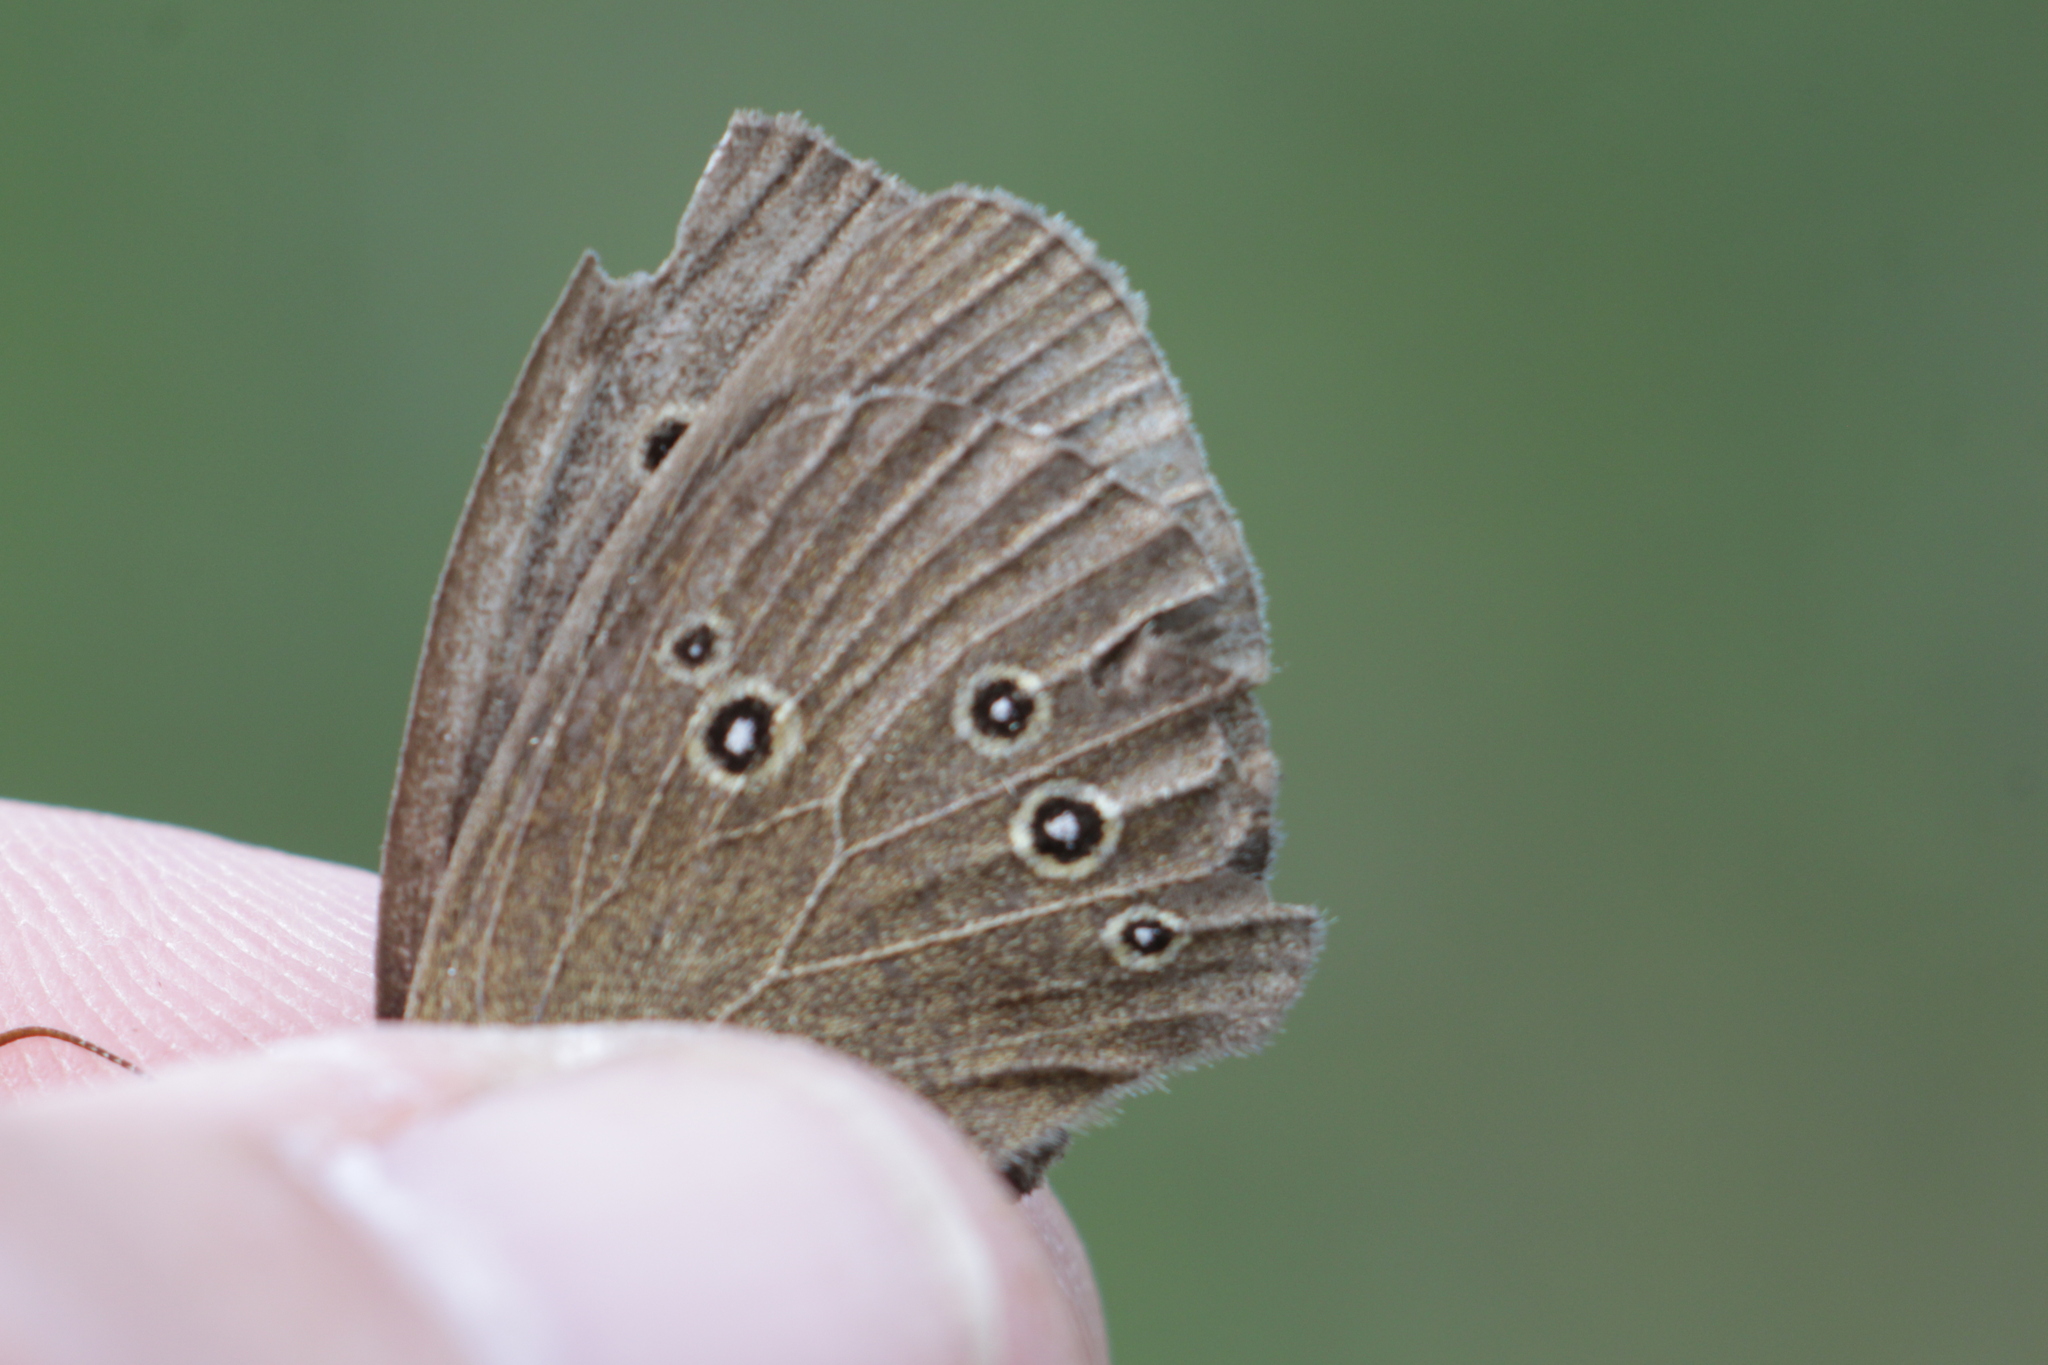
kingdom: Animalia
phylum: Arthropoda
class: Insecta
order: Lepidoptera
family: Nymphalidae
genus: Aphantopus
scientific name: Aphantopus hyperantus
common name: Ringlet
